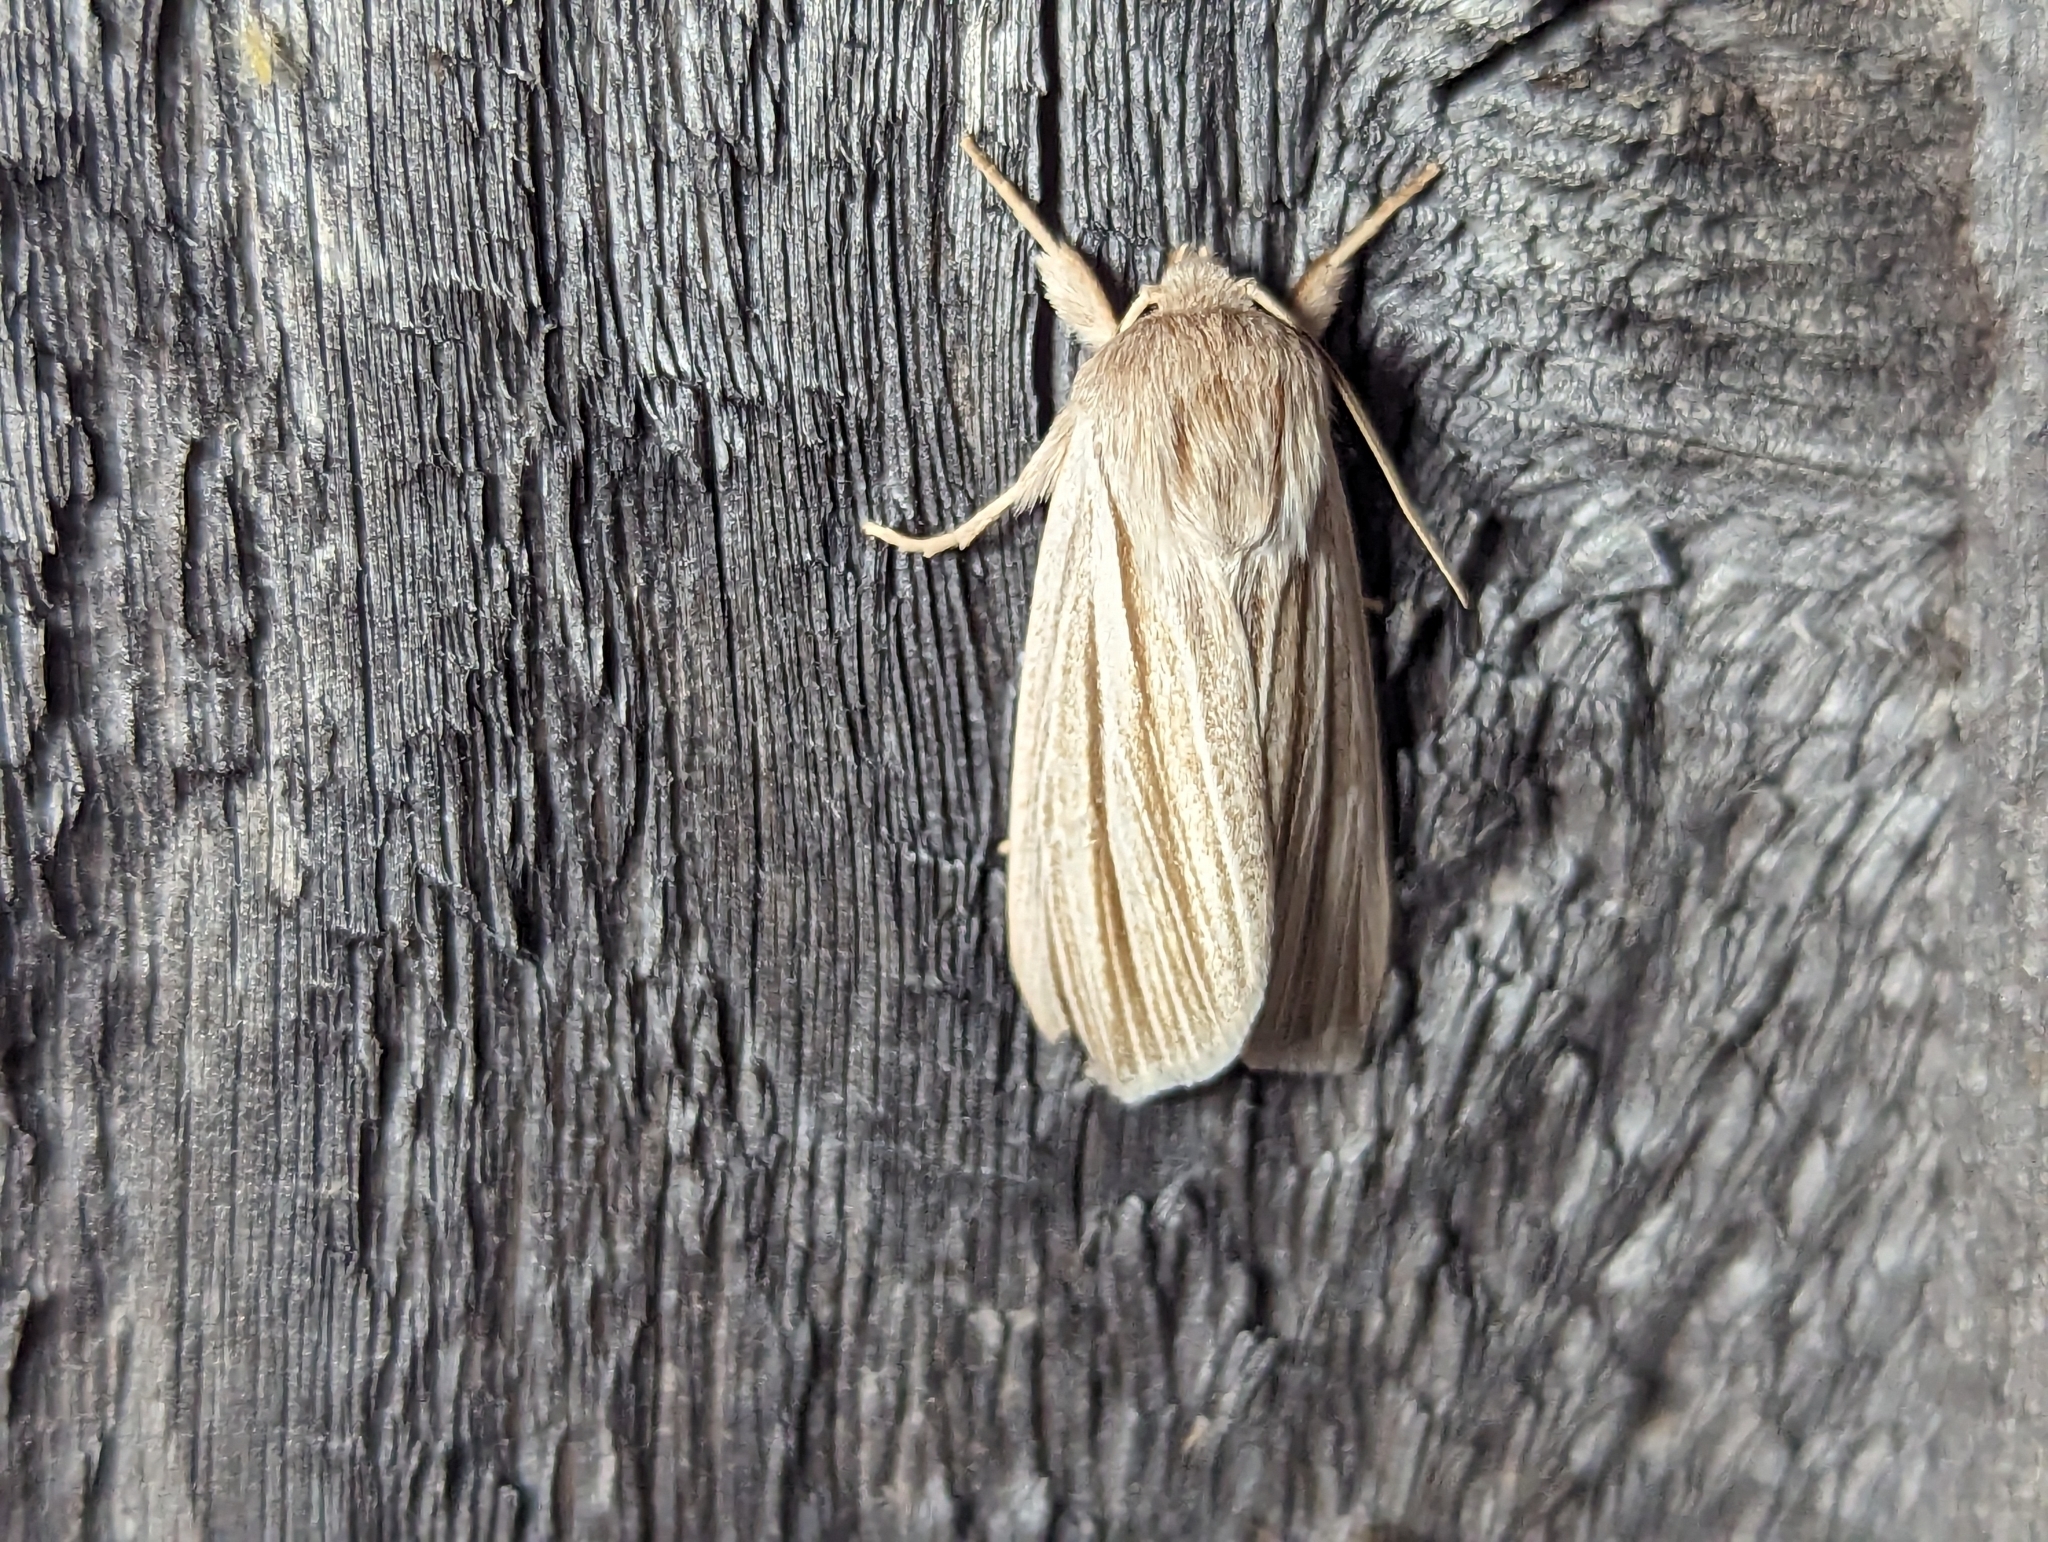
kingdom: Animalia
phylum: Arthropoda
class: Insecta
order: Lepidoptera
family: Noctuidae
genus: Acronicta
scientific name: Acronicta insularis
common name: Henry's marsh moth
